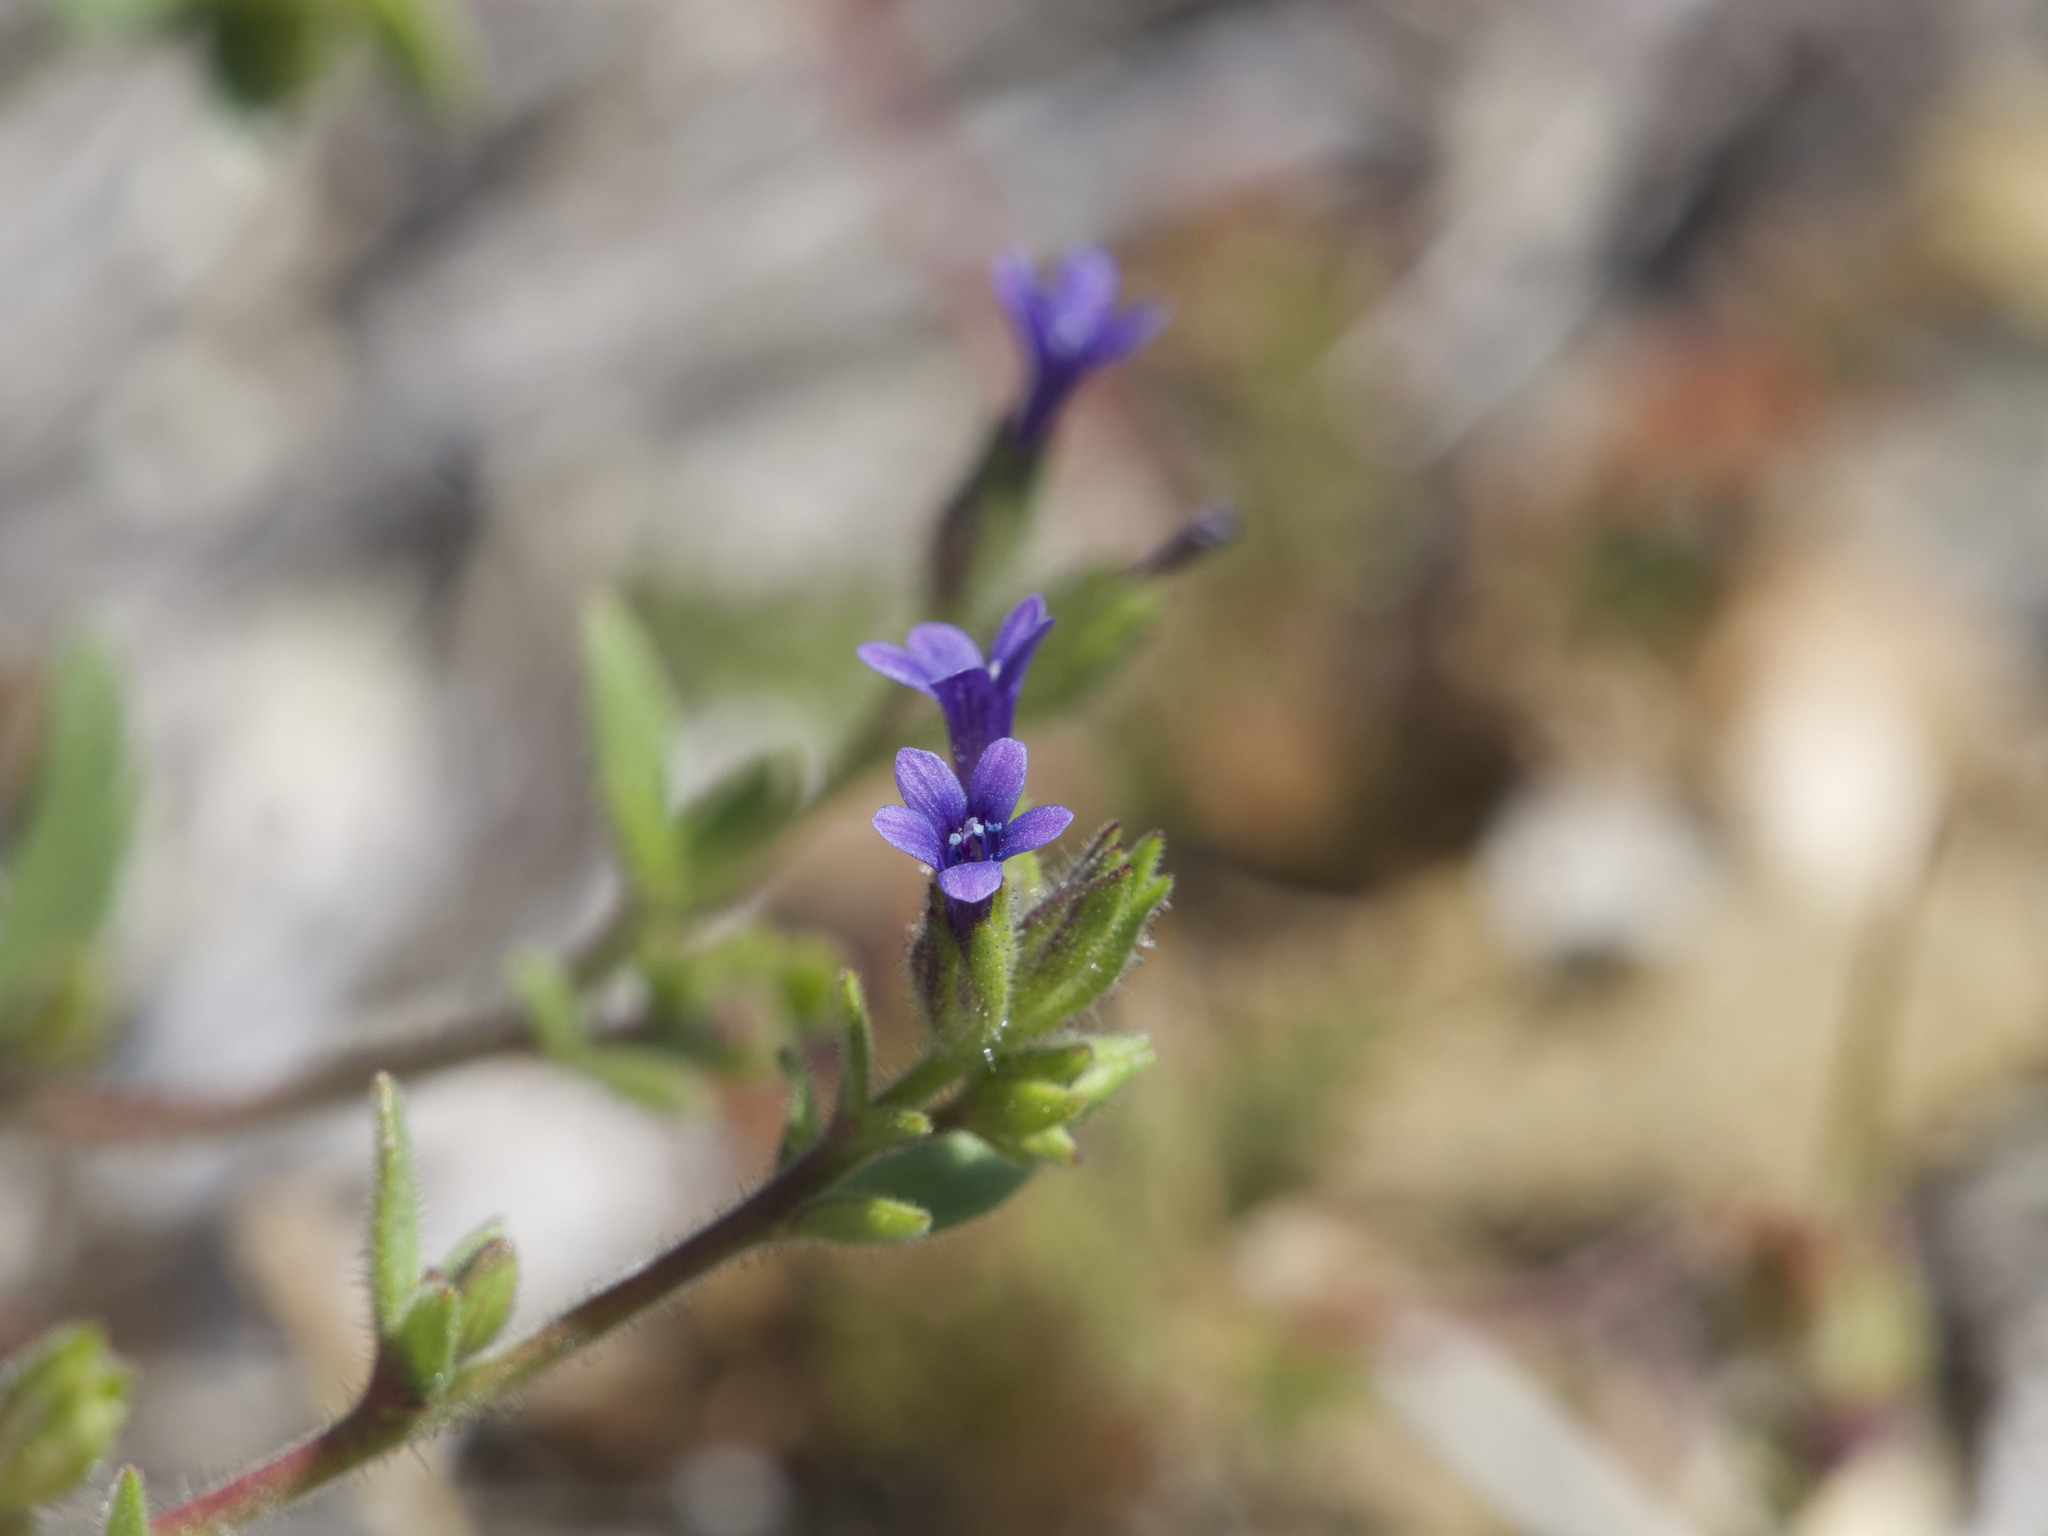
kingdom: Plantae
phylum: Tracheophyta
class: Magnoliopsida
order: Ericales
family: Polemoniaceae
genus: Allophyllum
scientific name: Allophyllum gilioides
